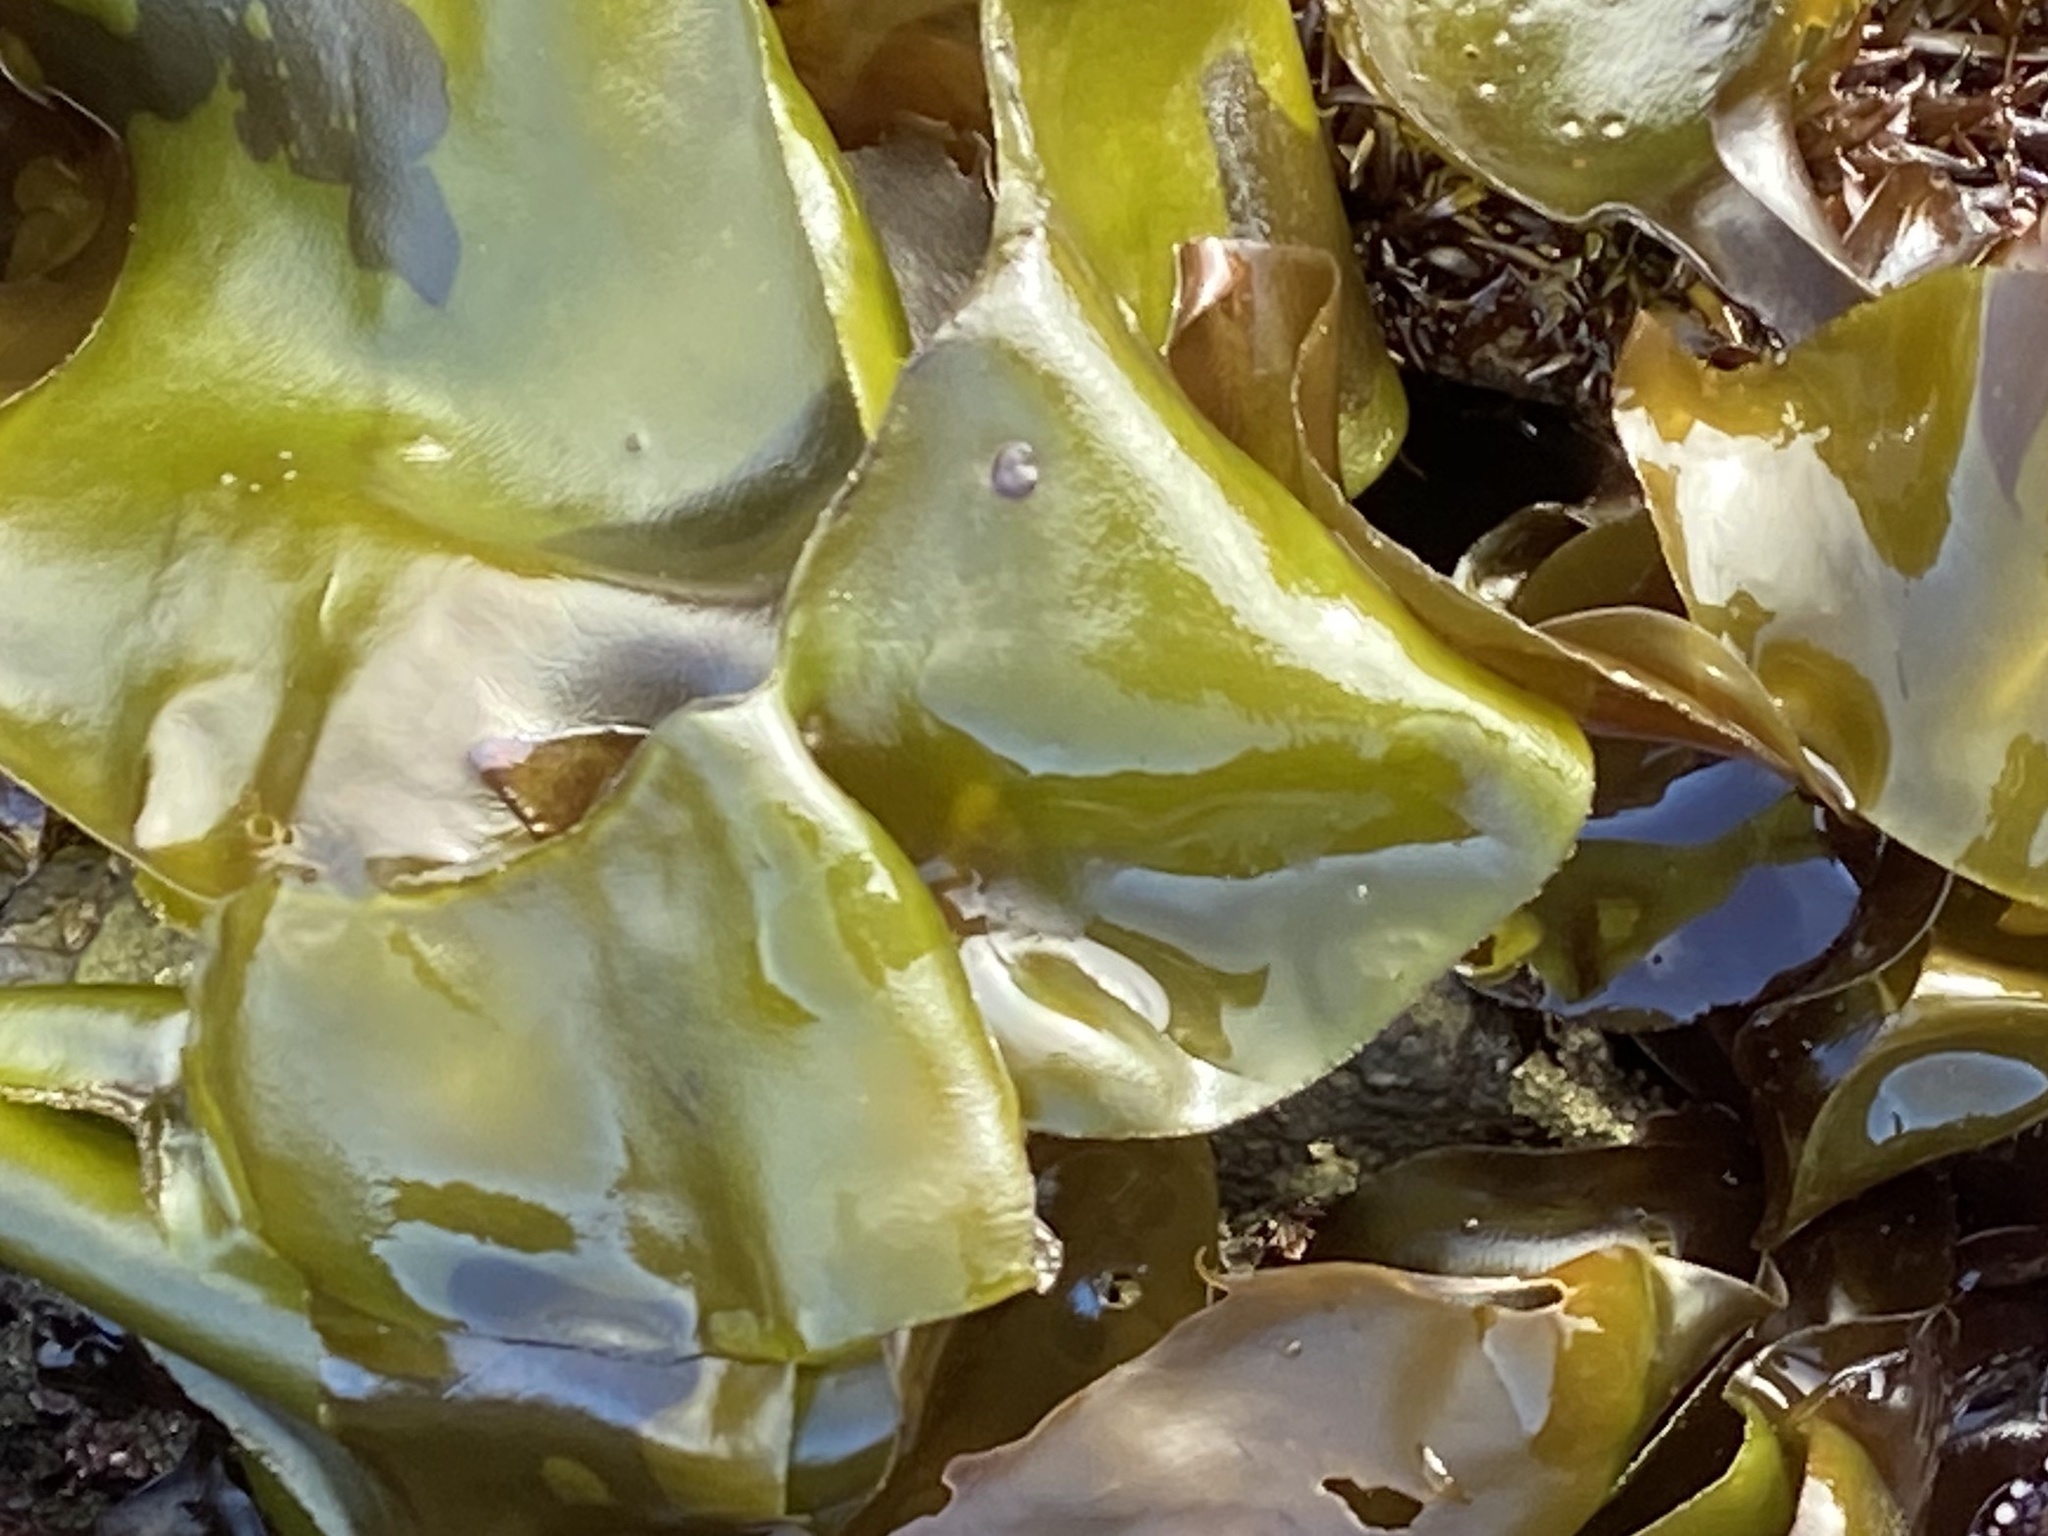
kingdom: Plantae
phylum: Rhodophyta
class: Florideophyceae
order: Gigartinales
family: Gigartinaceae
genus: Mazzaella
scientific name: Mazzaella flaccida
